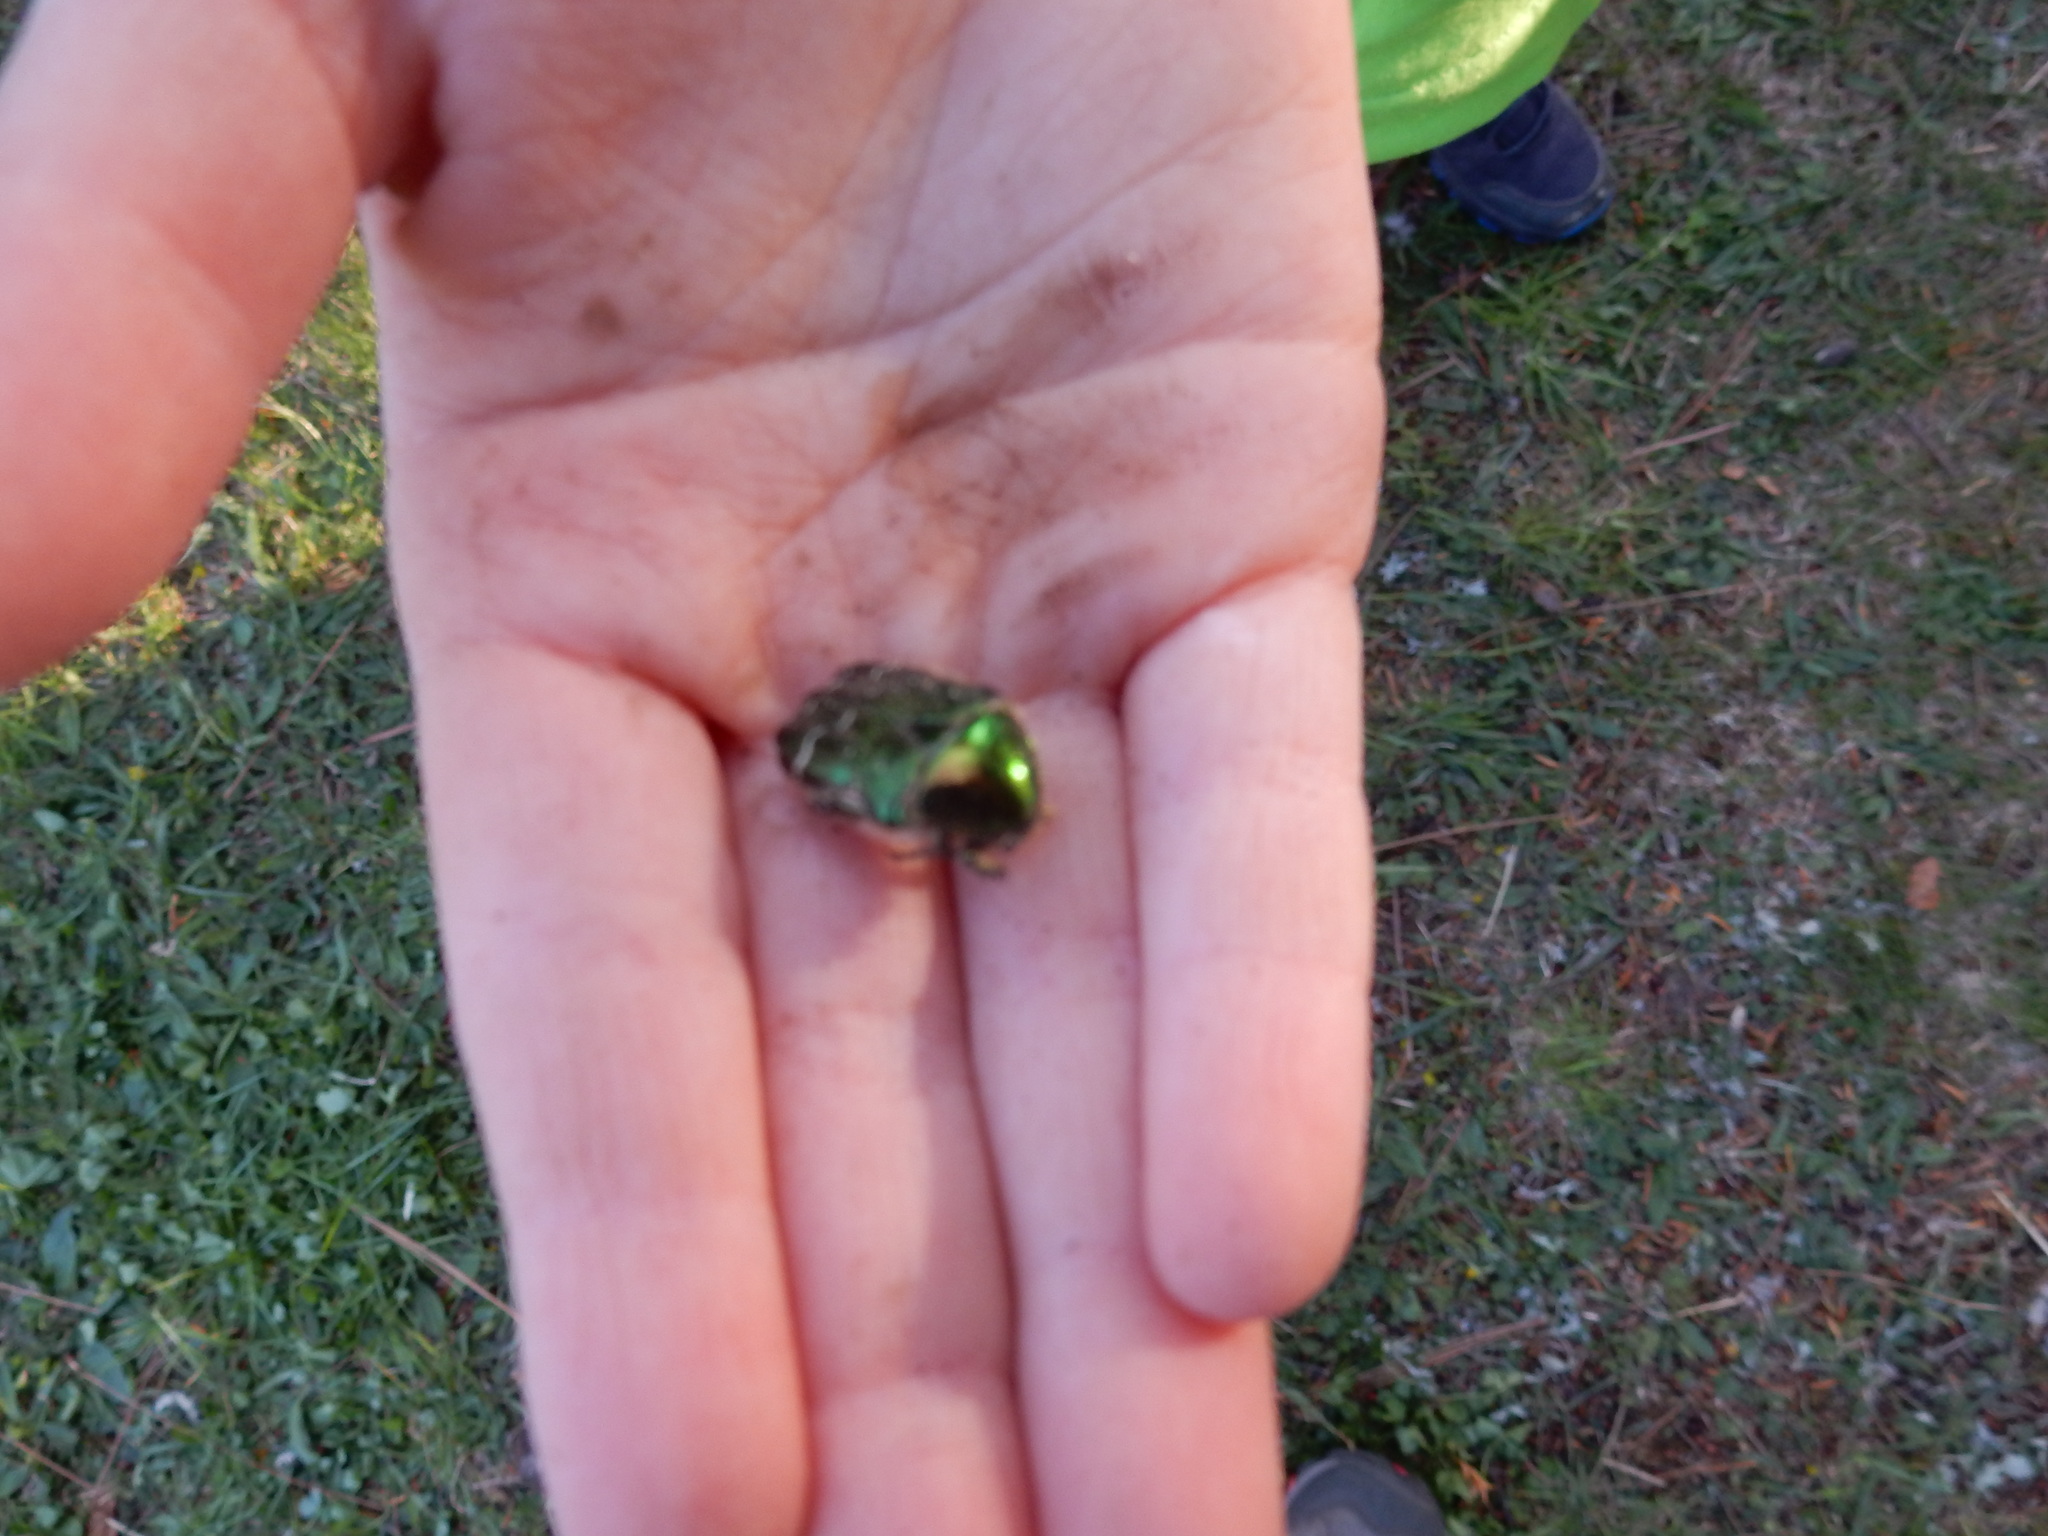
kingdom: Animalia
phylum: Arthropoda
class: Insecta
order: Coleoptera
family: Scarabaeidae
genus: Cetonia
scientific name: Cetonia aurata
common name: Rose chafer
